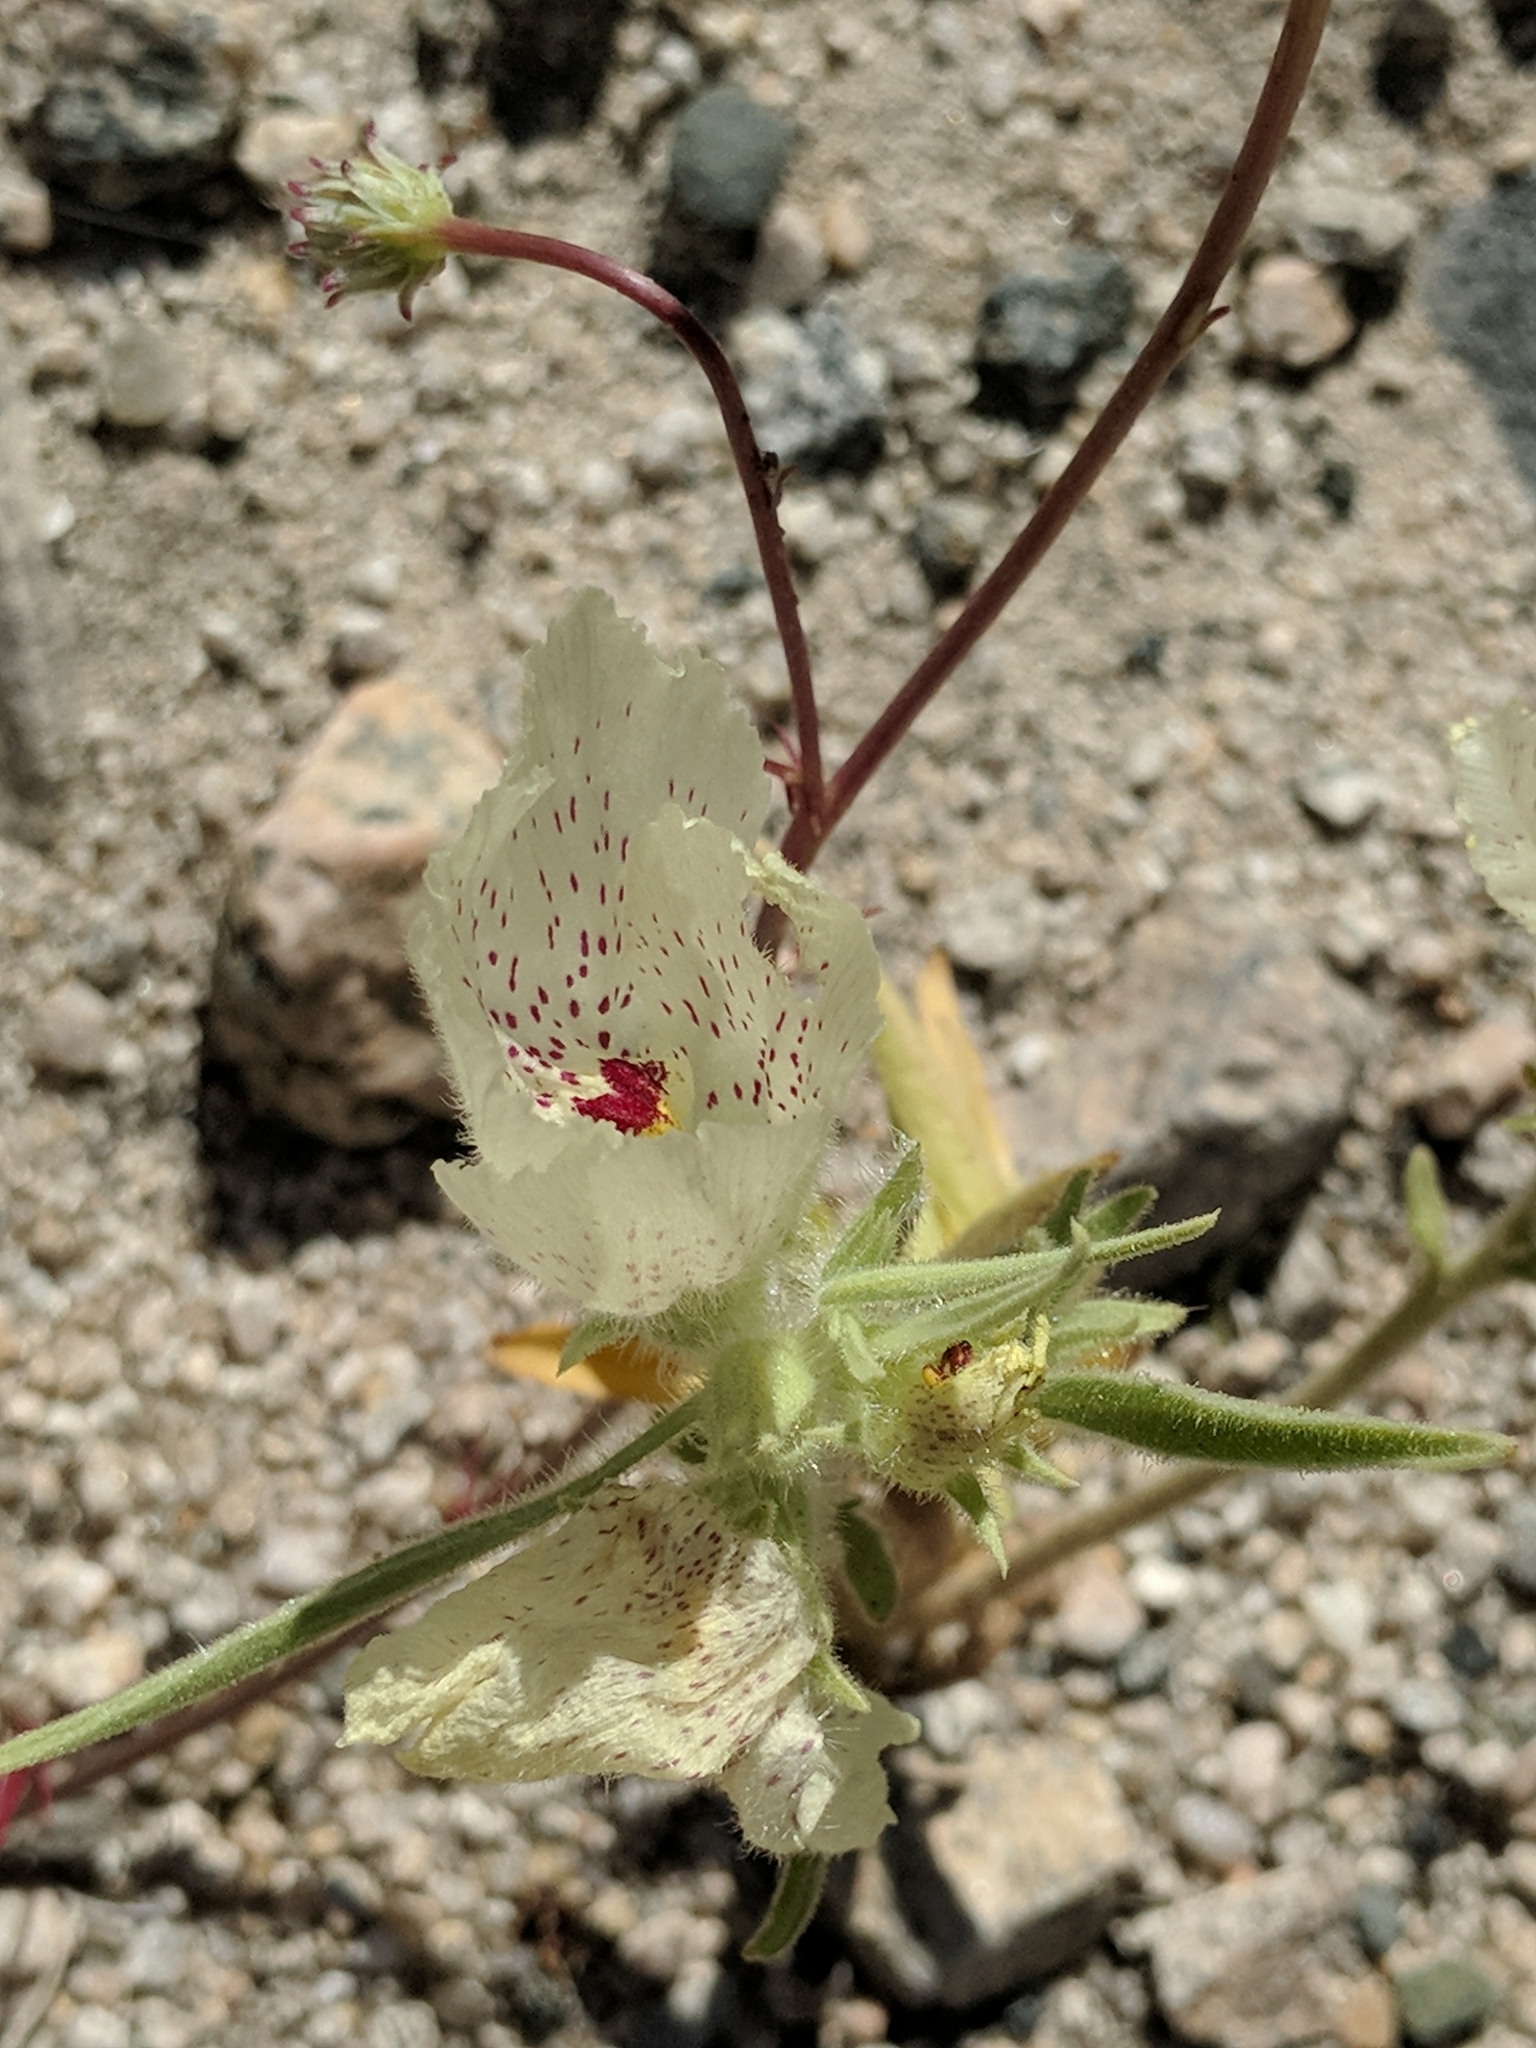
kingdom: Plantae
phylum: Tracheophyta
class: Magnoliopsida
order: Lamiales
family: Plantaginaceae
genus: Mohavea
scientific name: Mohavea confertiflora
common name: Ghost flower
